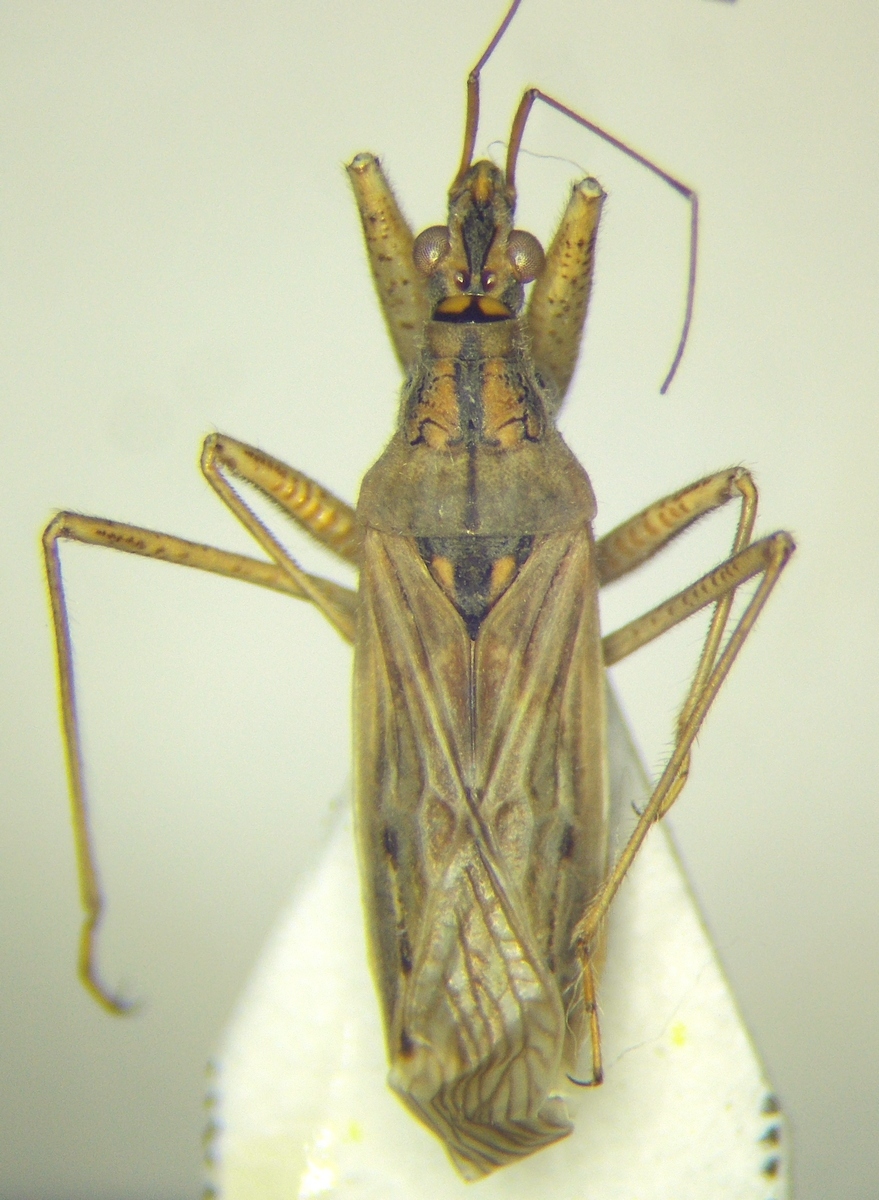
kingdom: Animalia
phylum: Arthropoda
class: Insecta
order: Hemiptera
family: Nabidae
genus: Nabis
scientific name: Nabis pseudoferus
